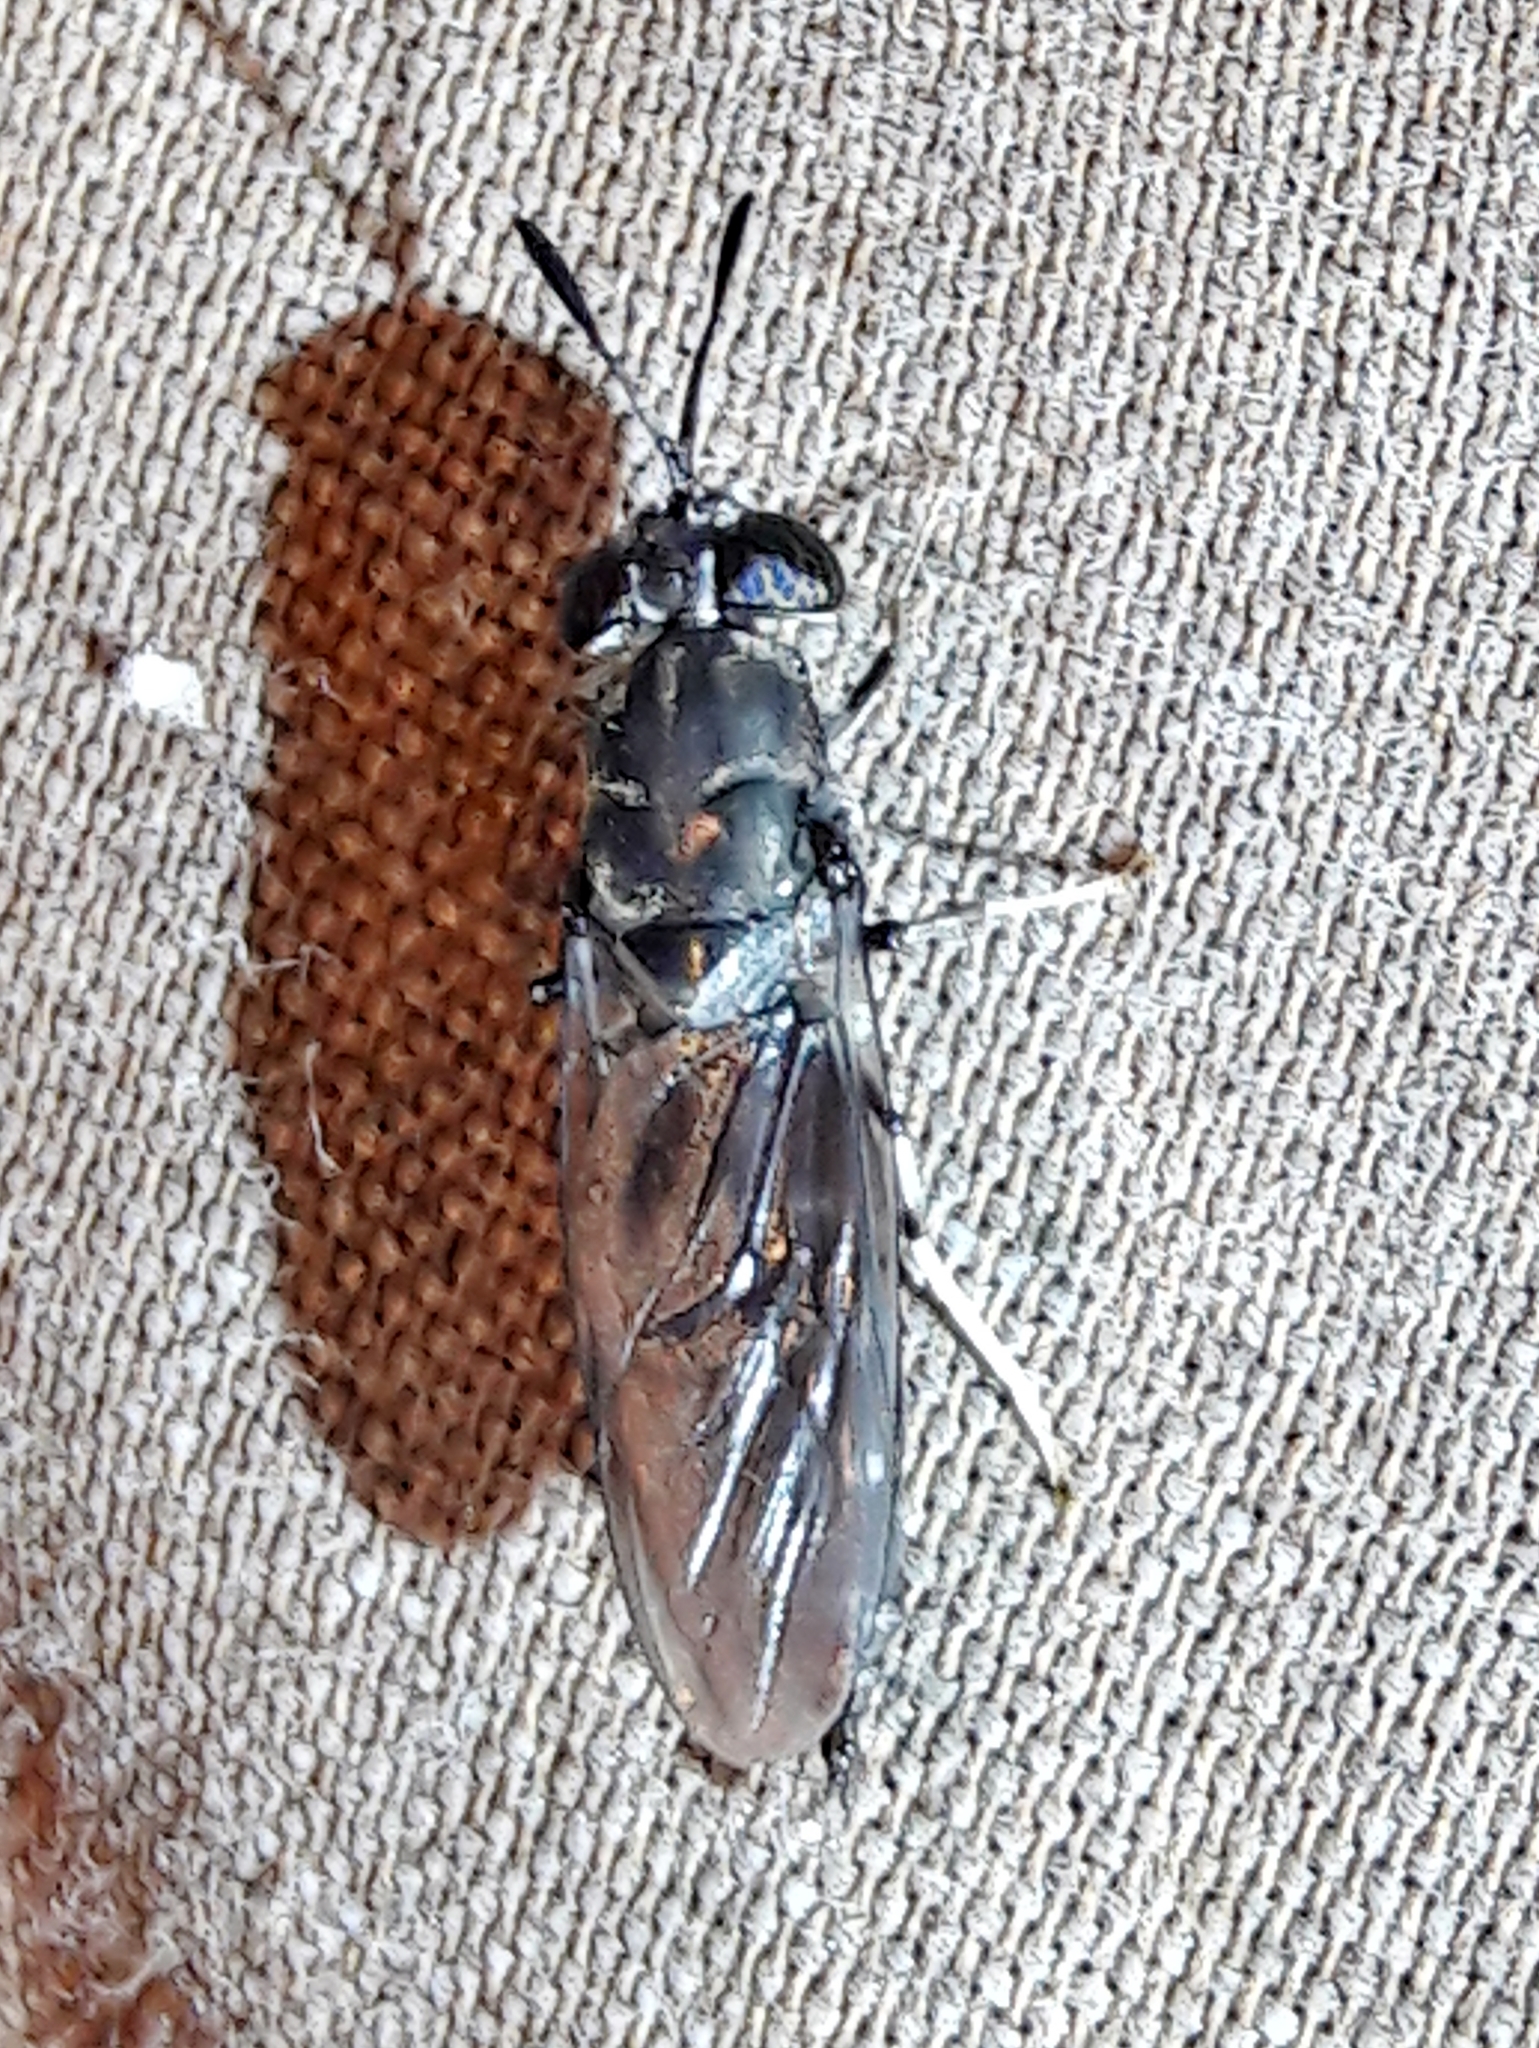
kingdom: Animalia
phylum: Arthropoda
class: Insecta
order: Diptera
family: Stratiomyidae
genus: Hermetia
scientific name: Hermetia illucens
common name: Black soldier fly
